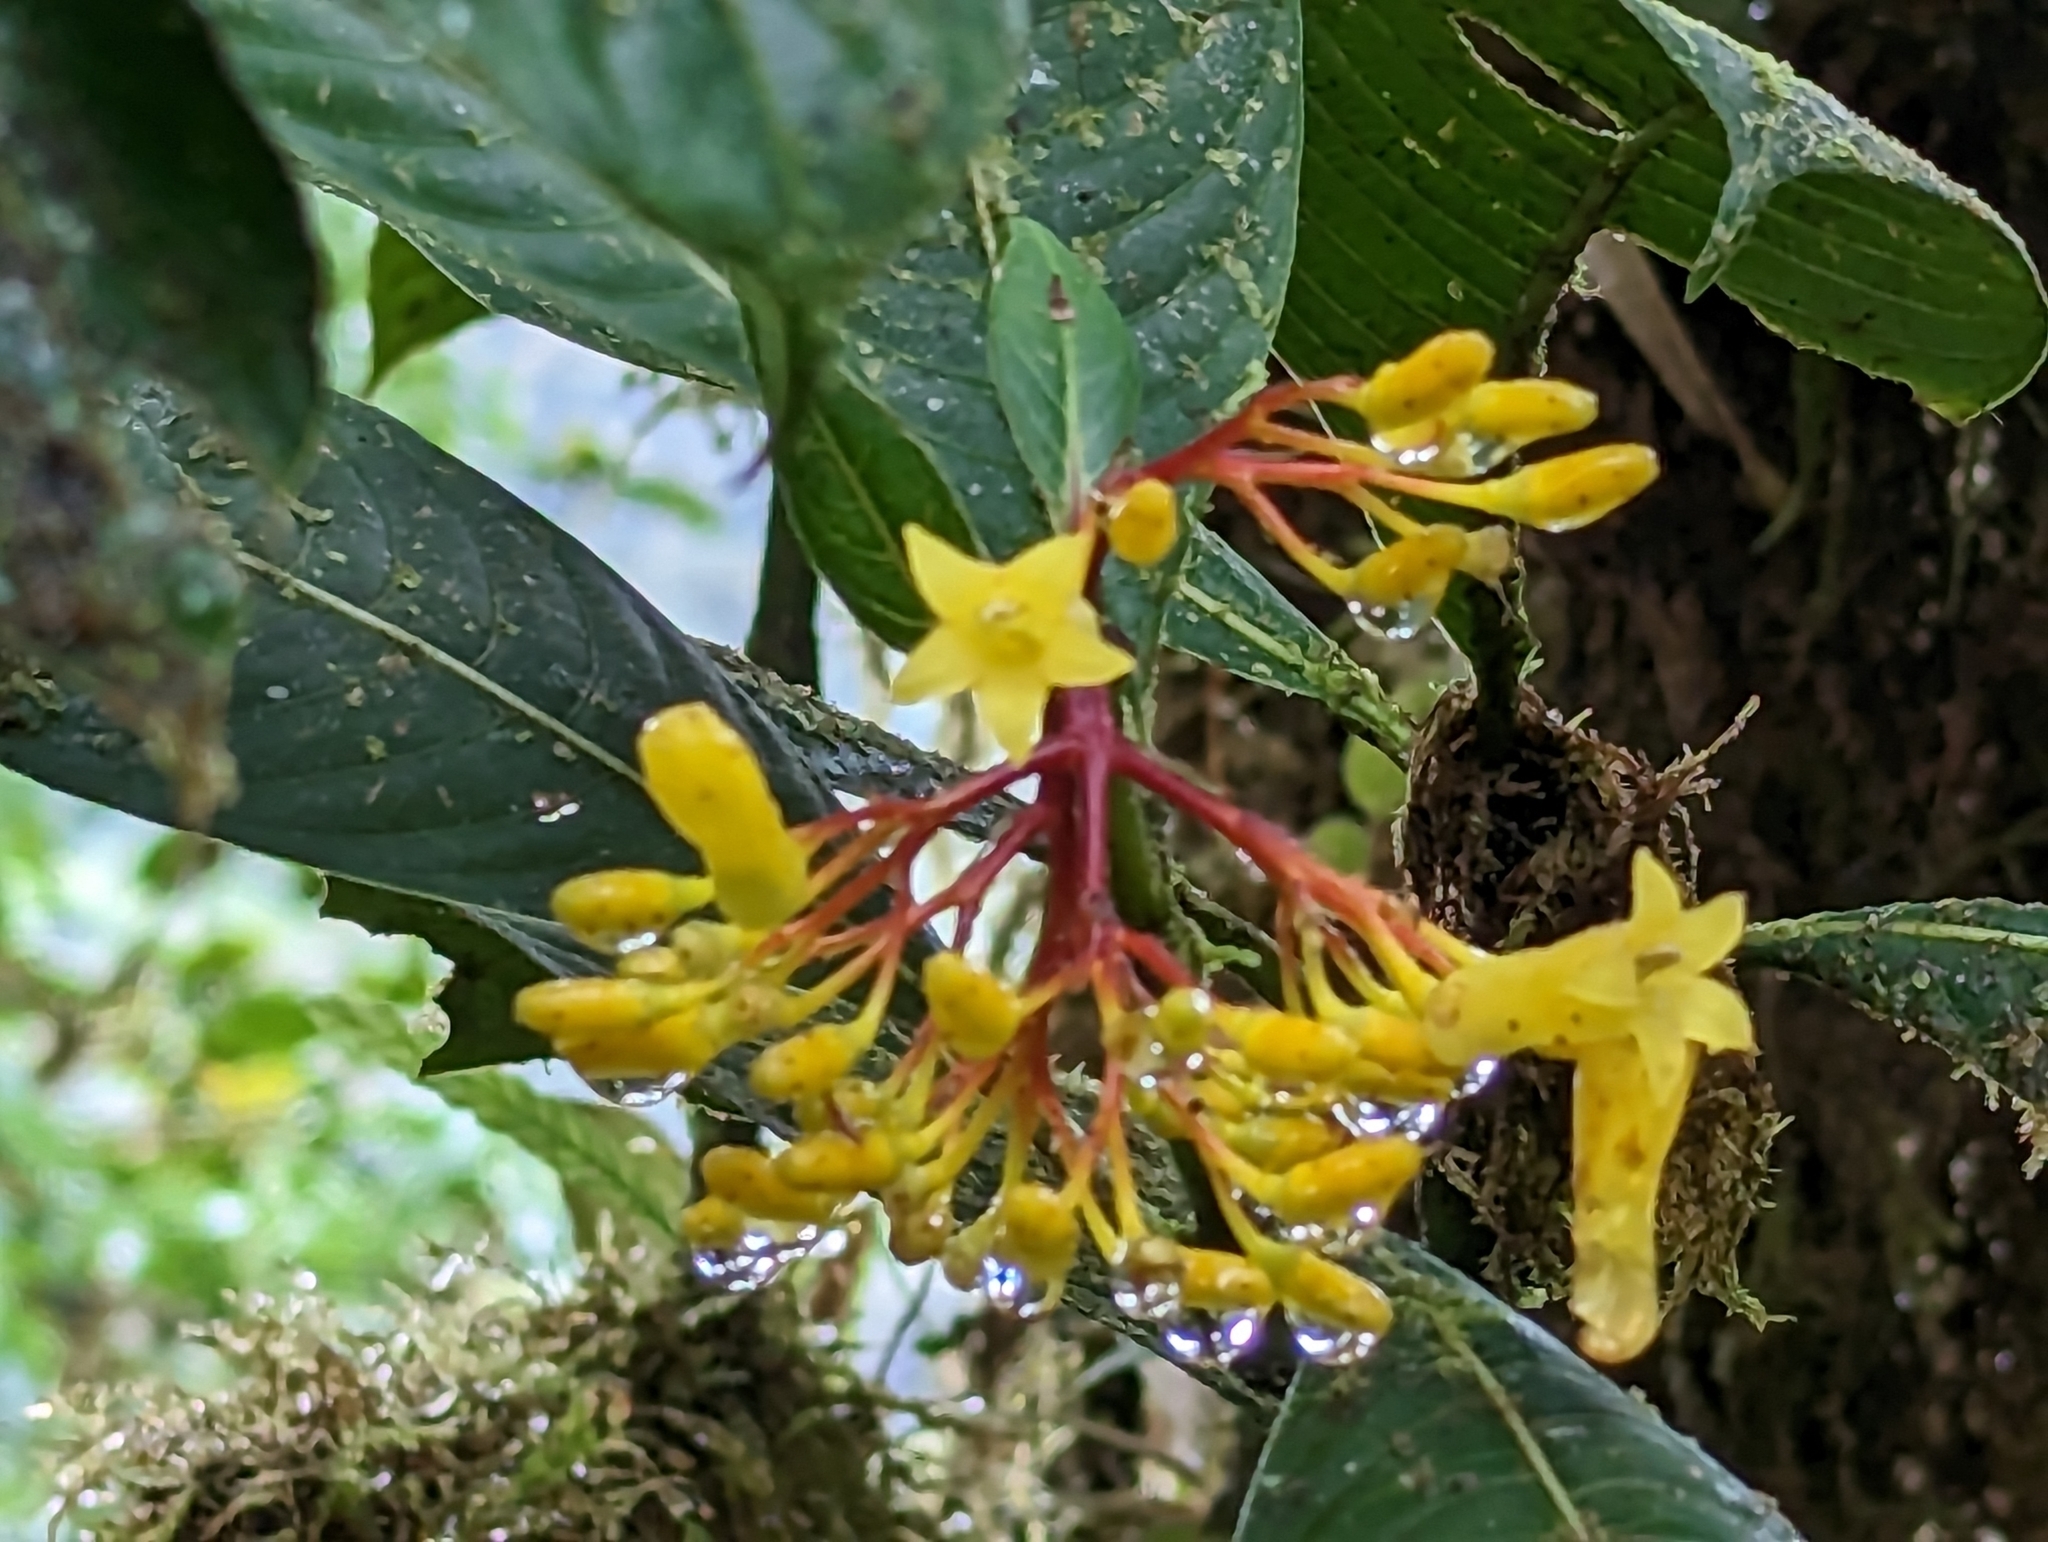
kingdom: Plantae
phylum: Tracheophyta
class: Magnoliopsida
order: Gentianales
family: Rubiaceae
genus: Palicourea
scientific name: Palicourea anderssoniana
